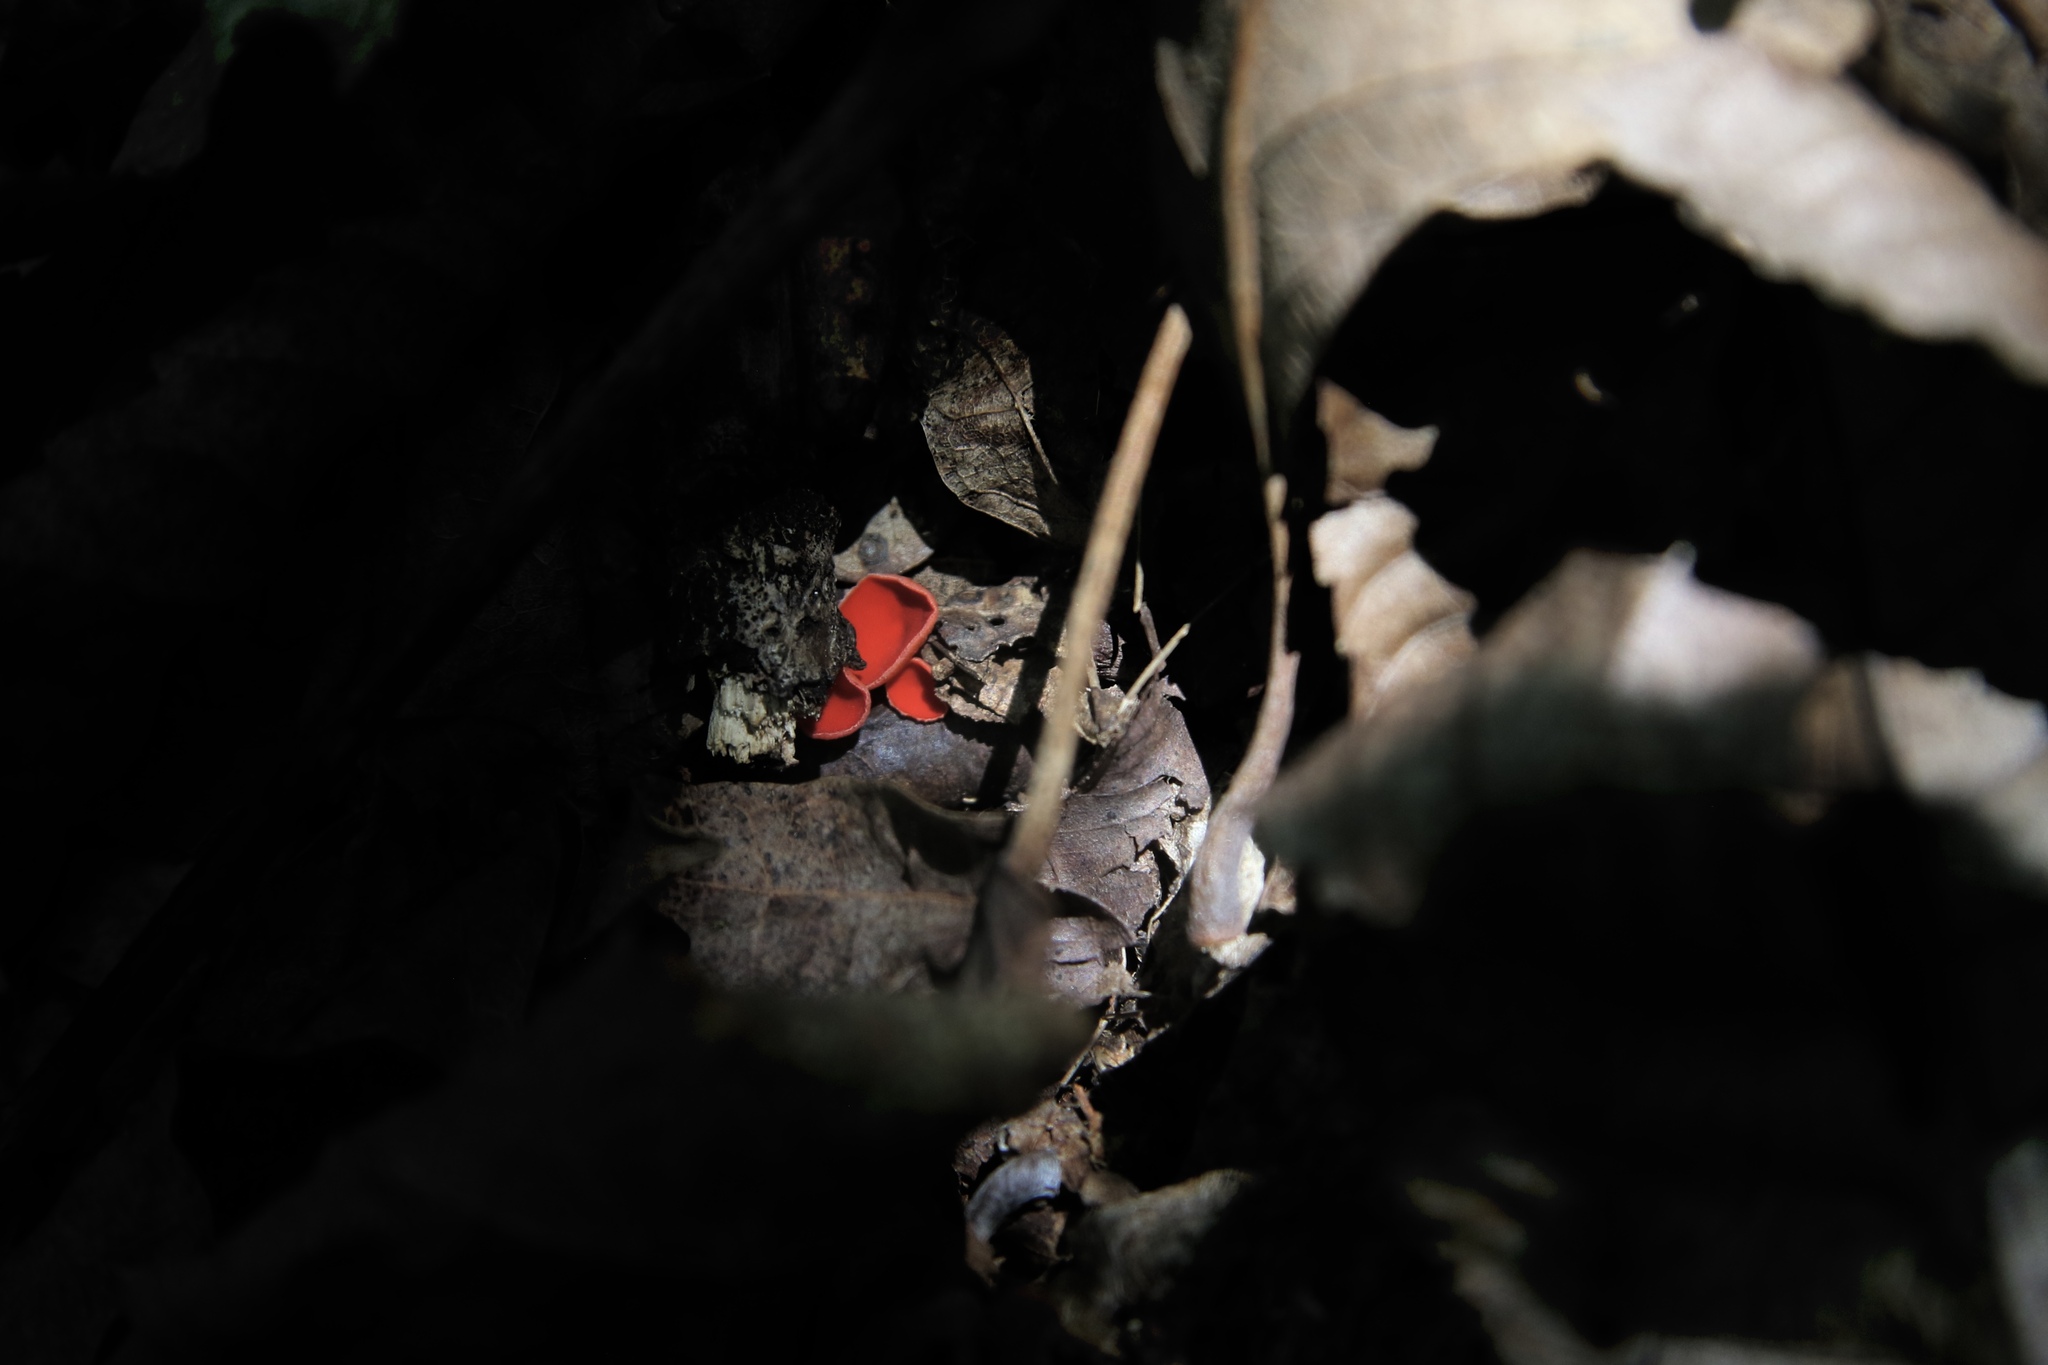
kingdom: Fungi
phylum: Ascomycota
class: Pezizomycetes
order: Pezizales
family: Sarcoscyphaceae
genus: Sarcoscypha
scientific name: Sarcoscypha occidentalis
